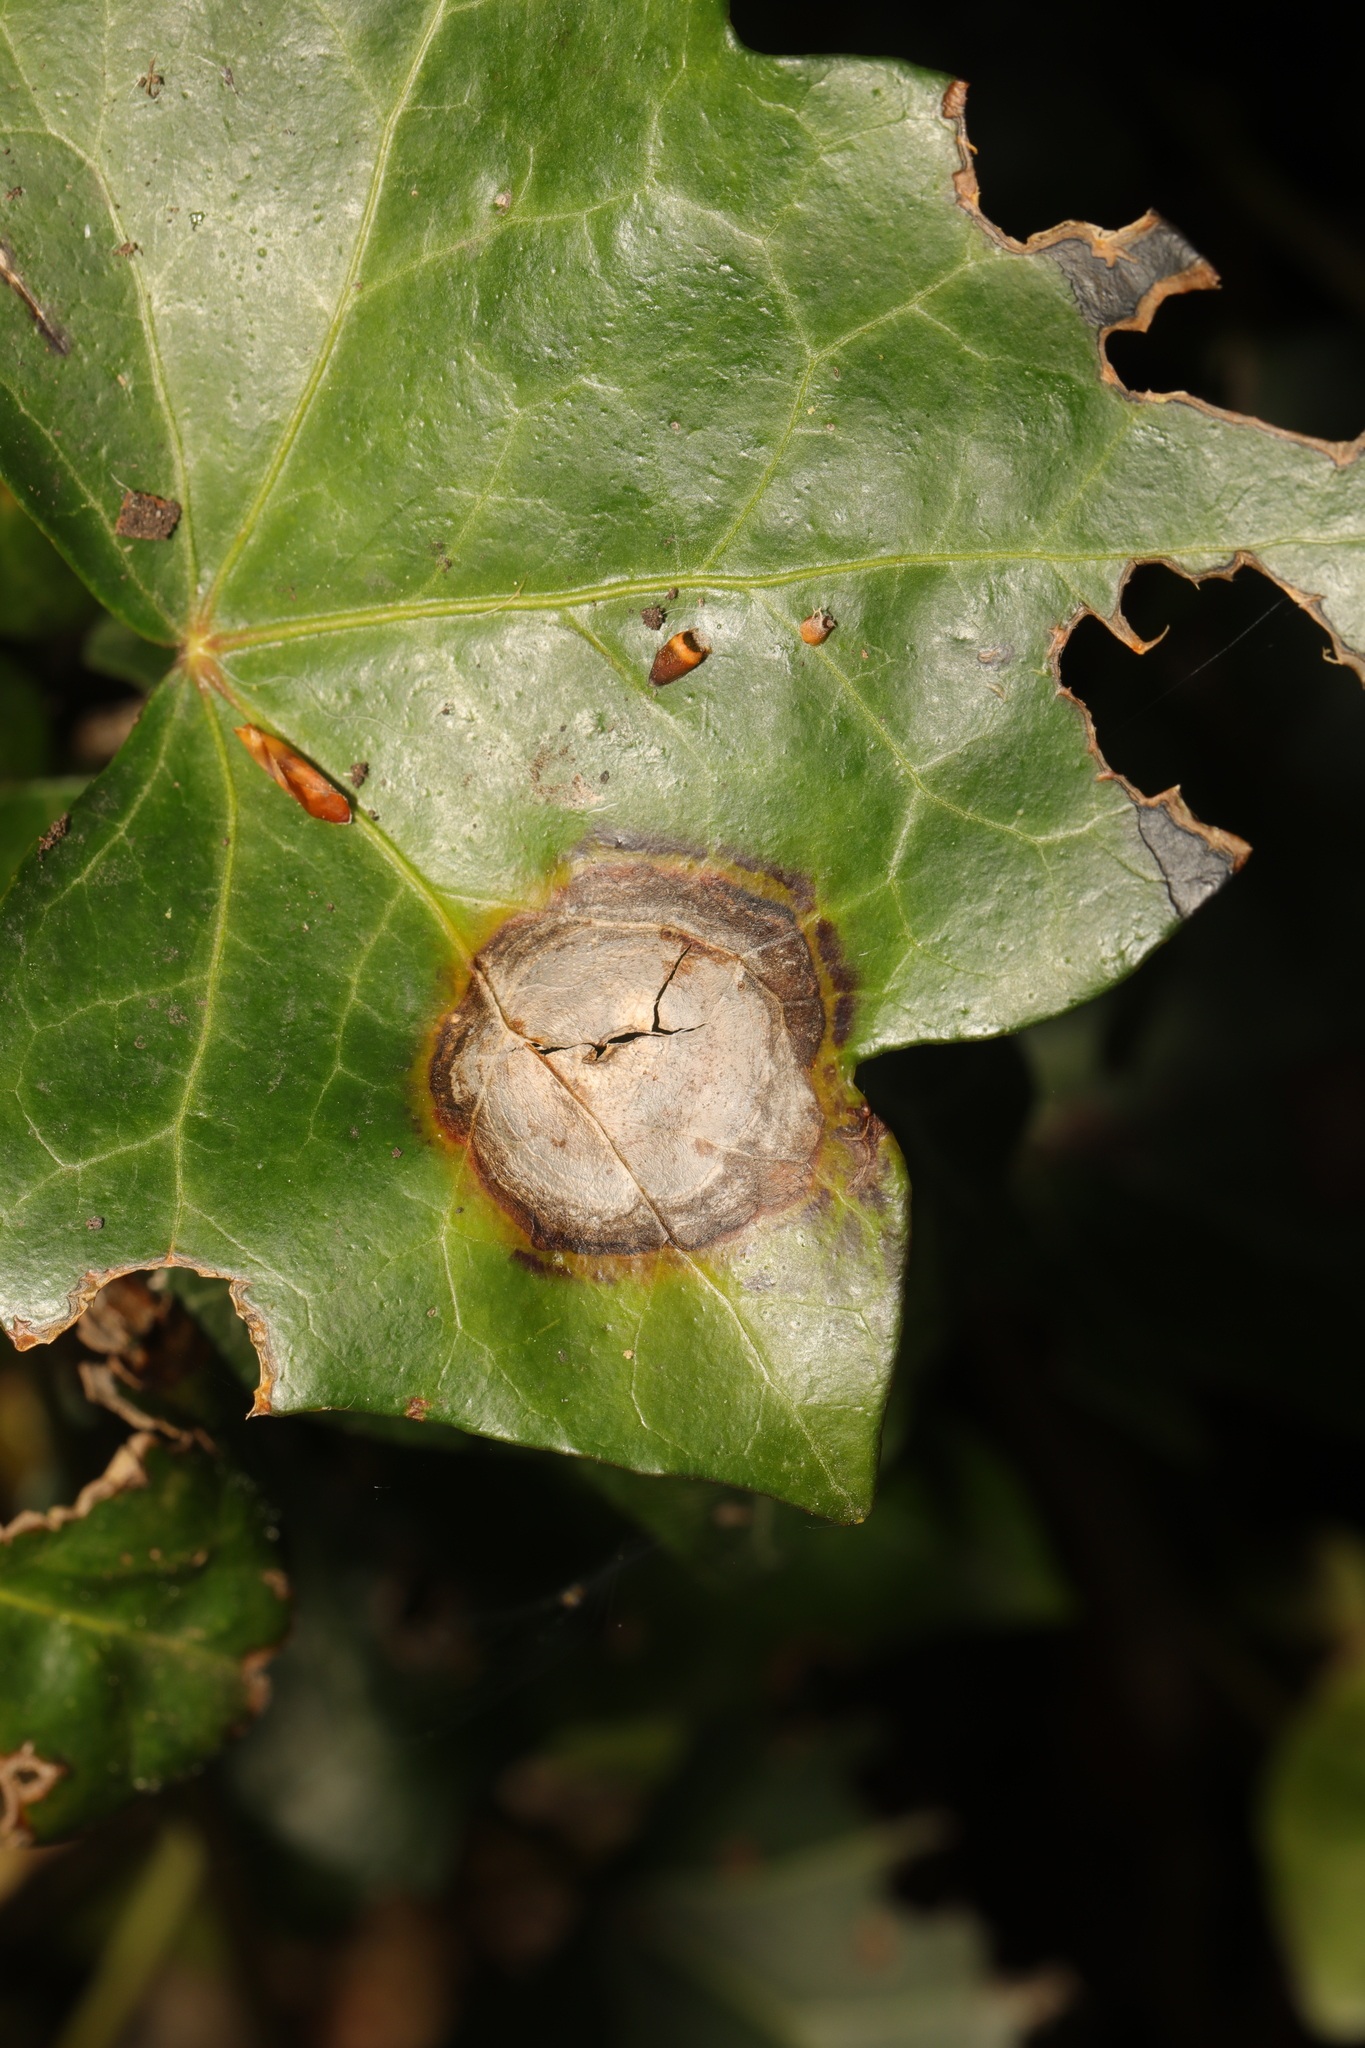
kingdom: Fungi
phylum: Ascomycota
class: Dothideomycetes
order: Pleosporales
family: Didymellaceae
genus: Boeremia
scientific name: Boeremia hedericola
